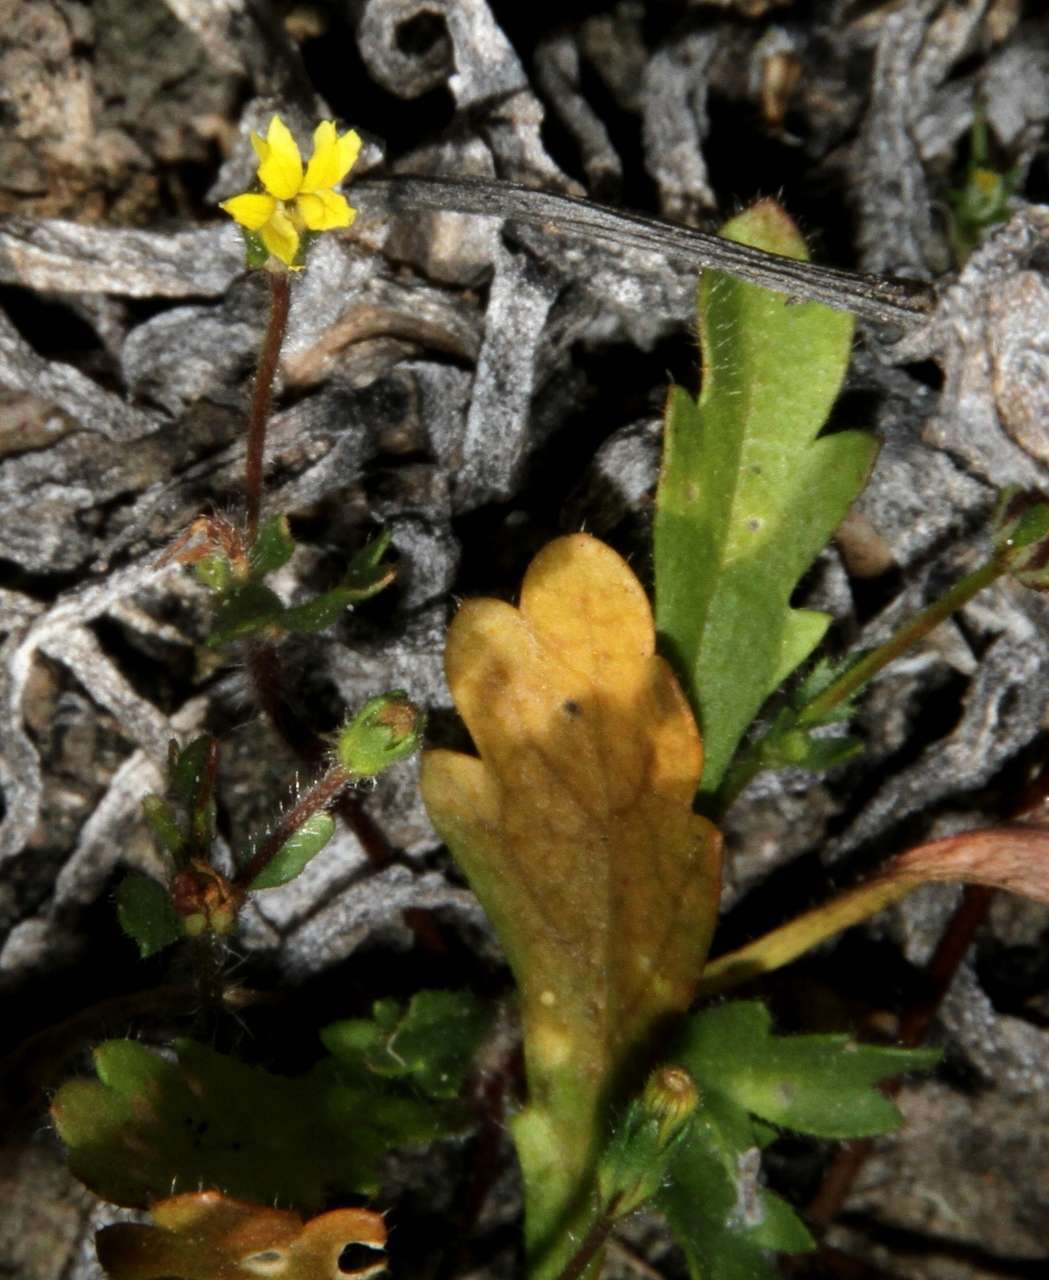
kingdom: Plantae
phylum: Tracheophyta
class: Magnoliopsida
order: Asterales
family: Goodeniaceae
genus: Goodenia
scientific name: Goodenia pusilliflora
